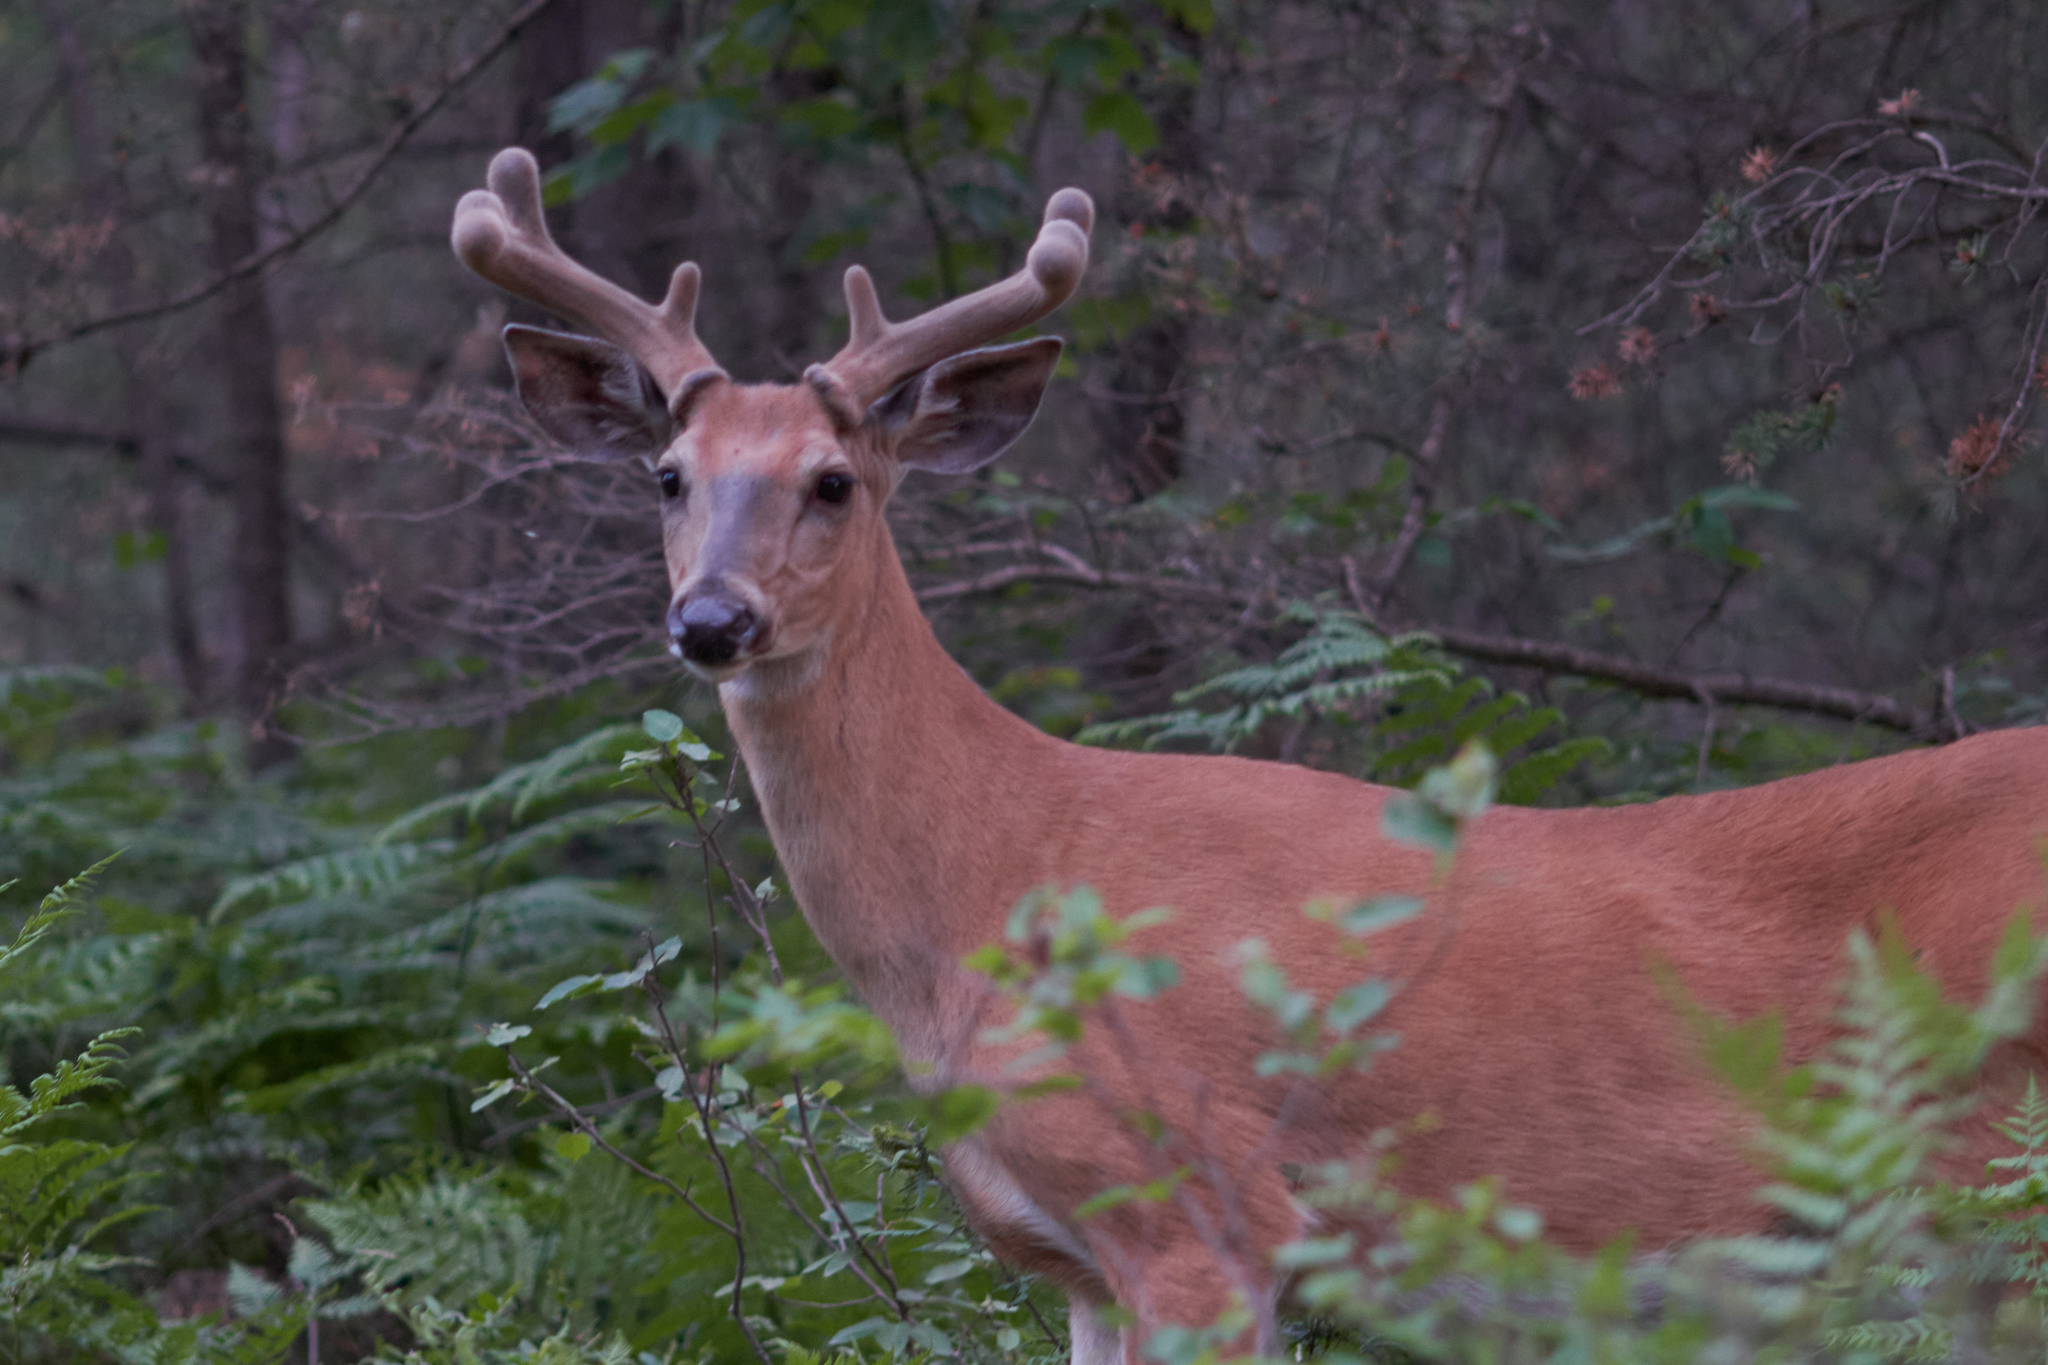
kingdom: Animalia
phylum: Chordata
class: Mammalia
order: Artiodactyla
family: Cervidae
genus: Odocoileus
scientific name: Odocoileus virginianus
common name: White-tailed deer
